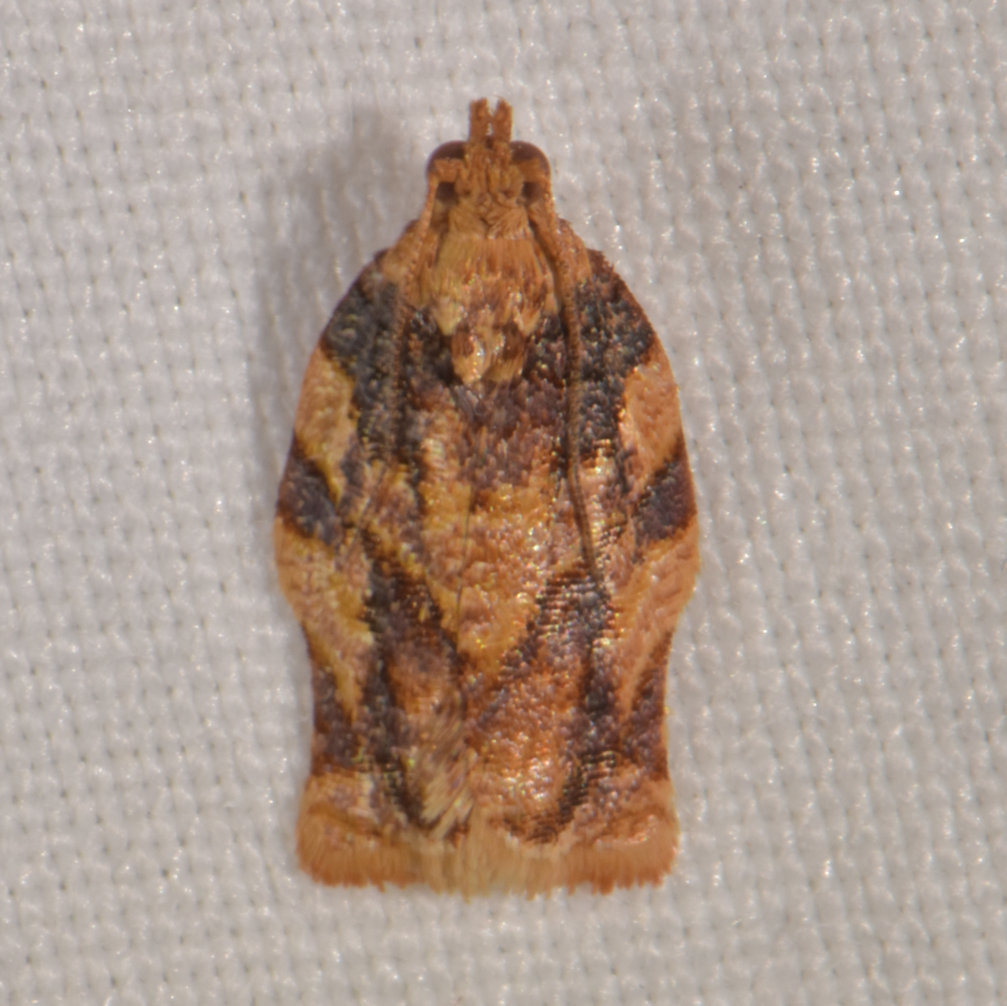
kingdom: Animalia
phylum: Arthropoda
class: Insecta
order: Lepidoptera
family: Tortricidae
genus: Argyrotaenia
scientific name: Argyrotaenia jamaicana
